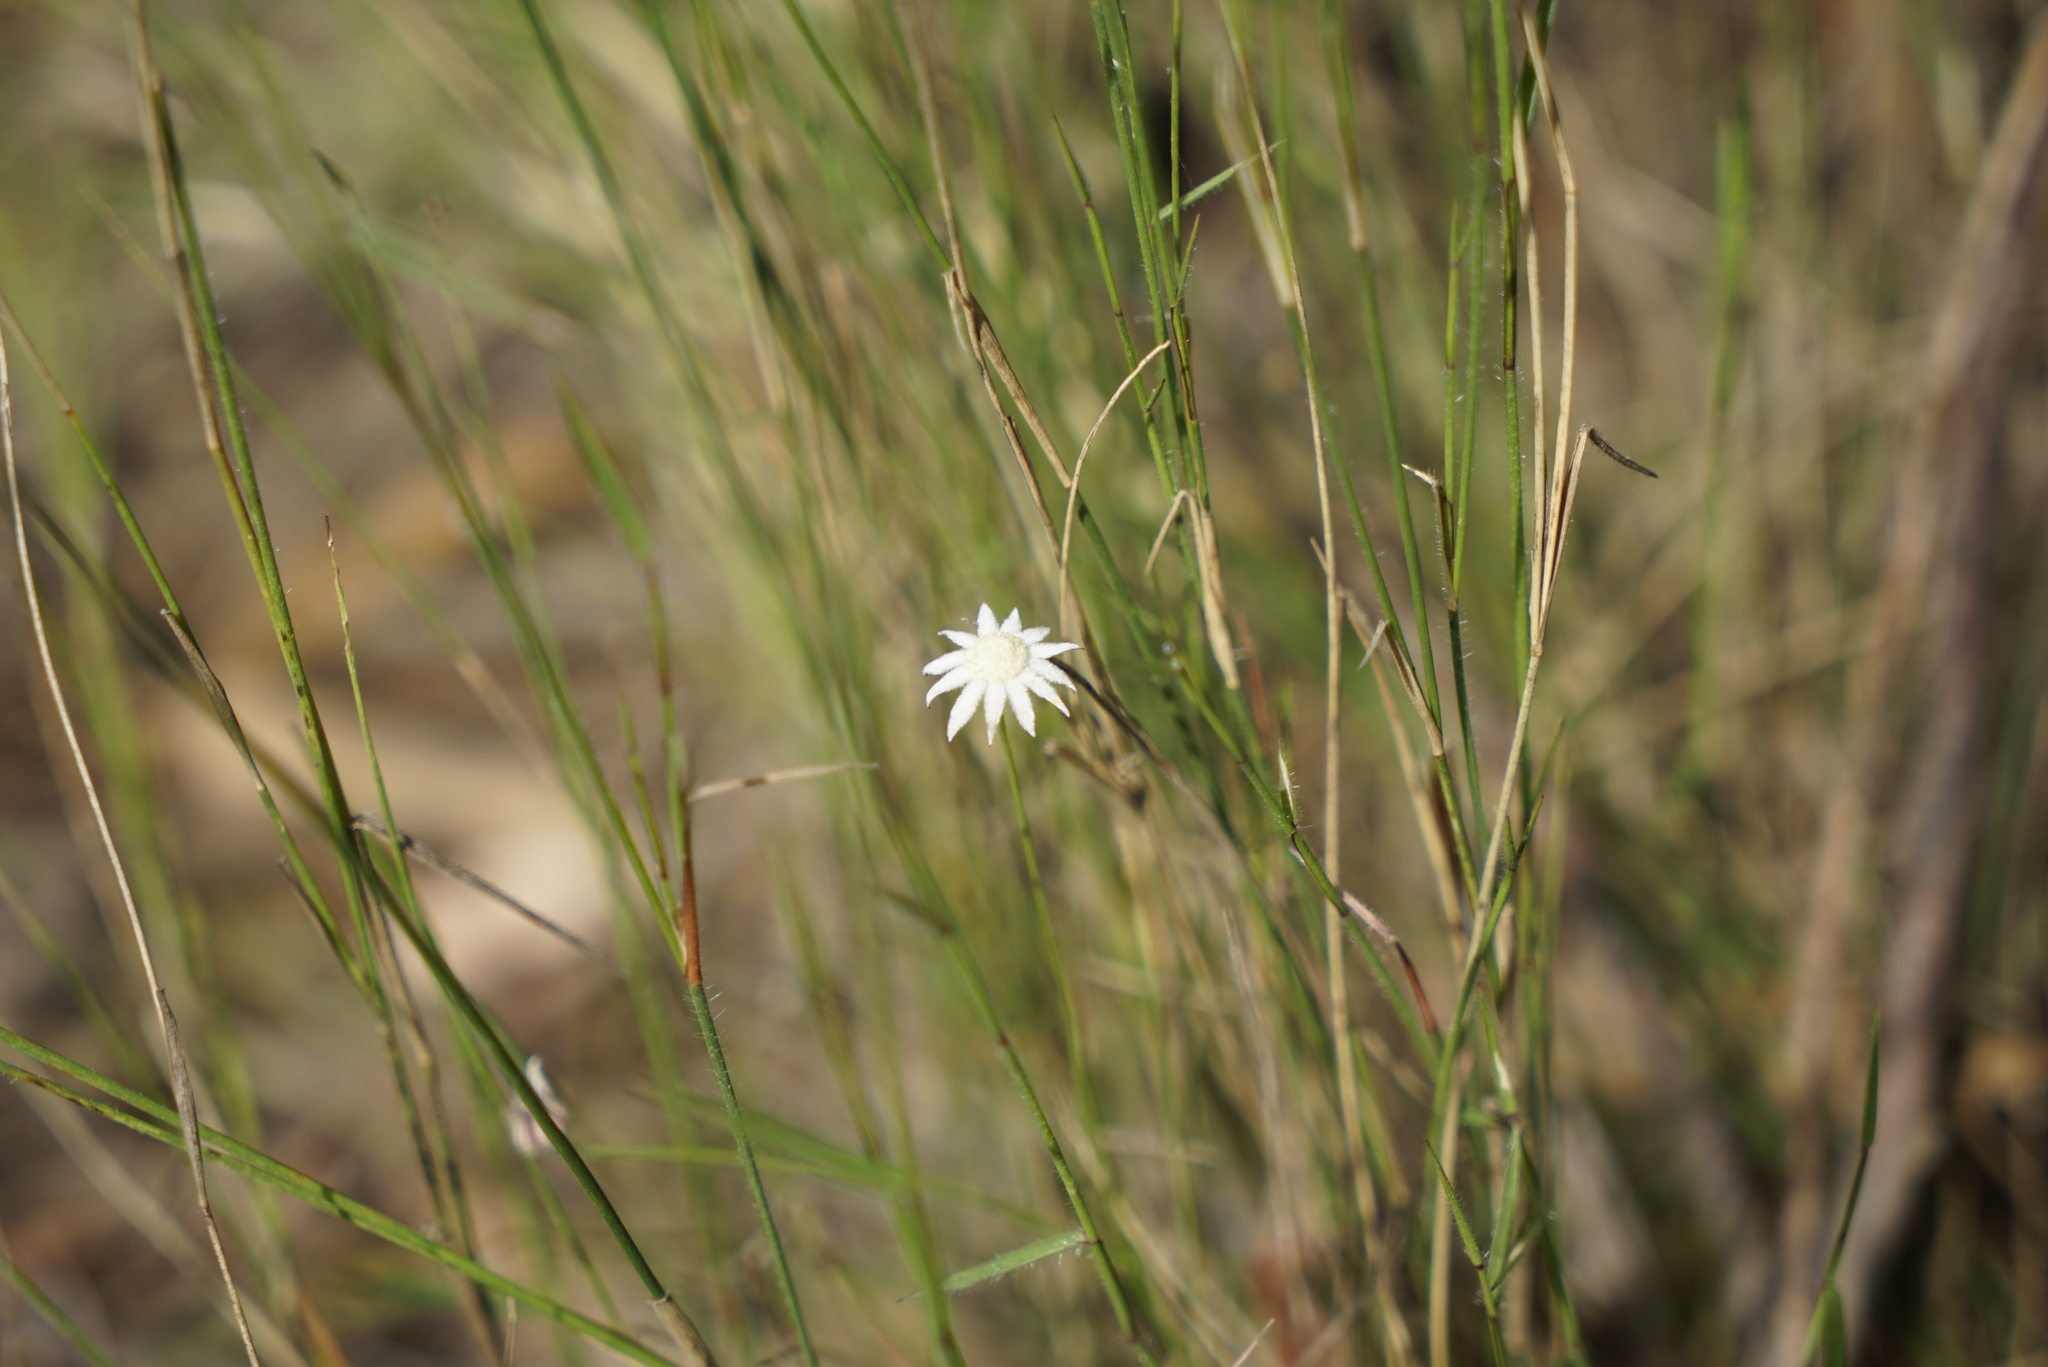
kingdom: Plantae
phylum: Tracheophyta
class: Magnoliopsida
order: Apiales
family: Apiaceae
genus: Actinotus
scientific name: Actinotus minor
